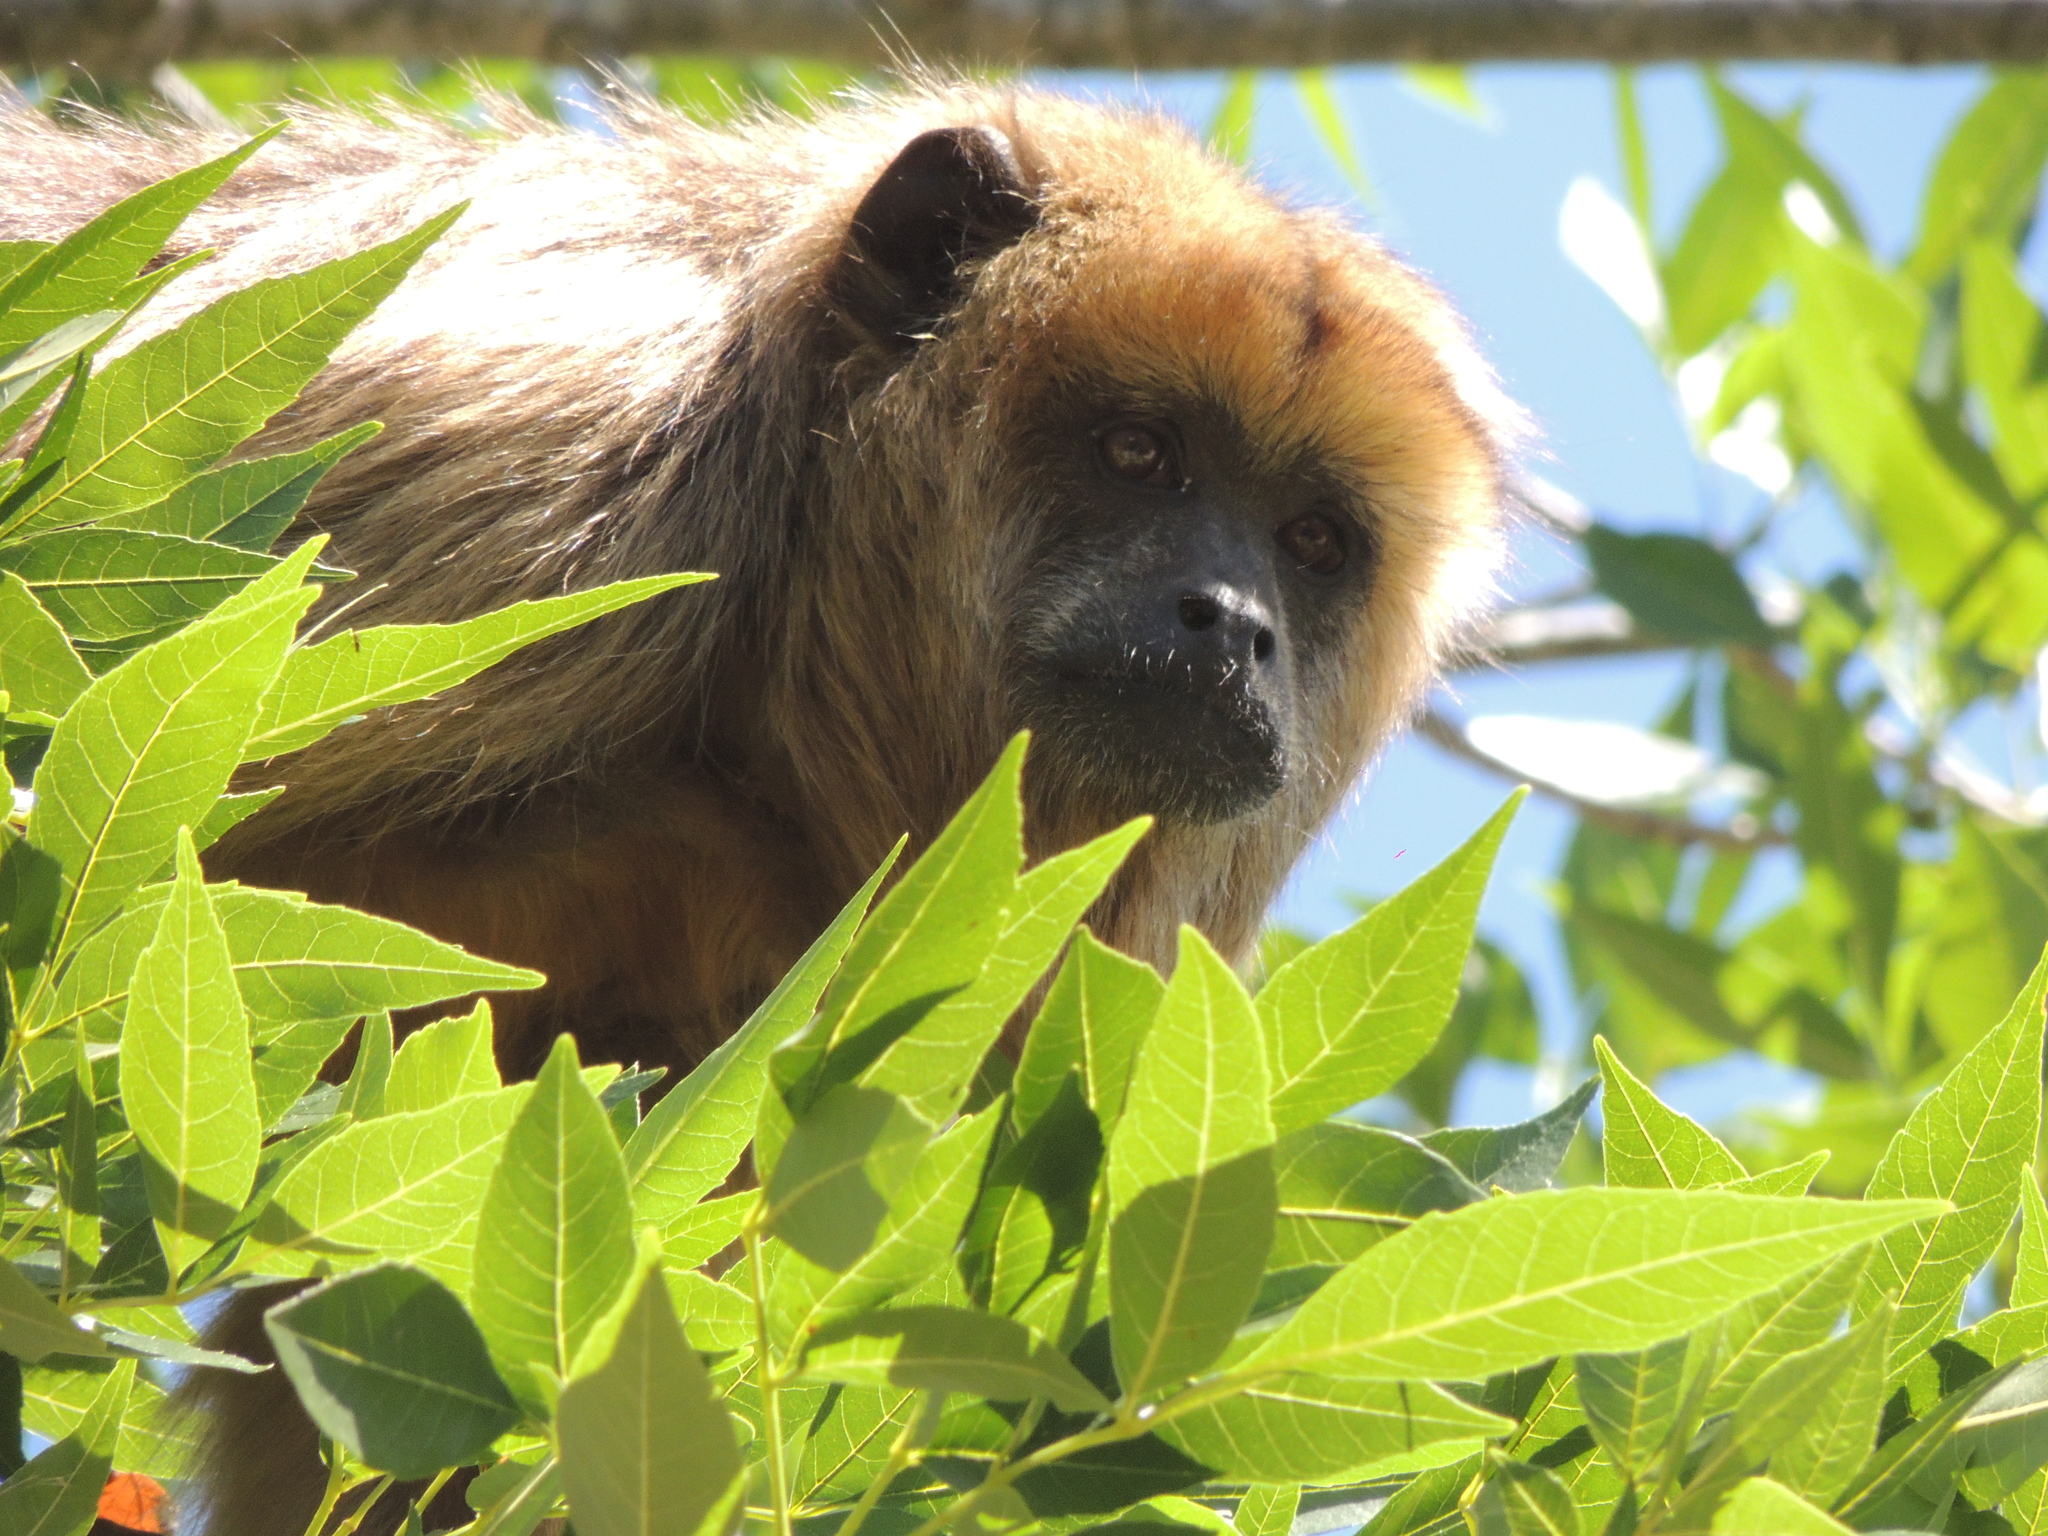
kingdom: Animalia
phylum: Chordata
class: Mammalia
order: Primates
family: Atelidae
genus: Alouatta
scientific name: Alouatta caraya
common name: Black howler
